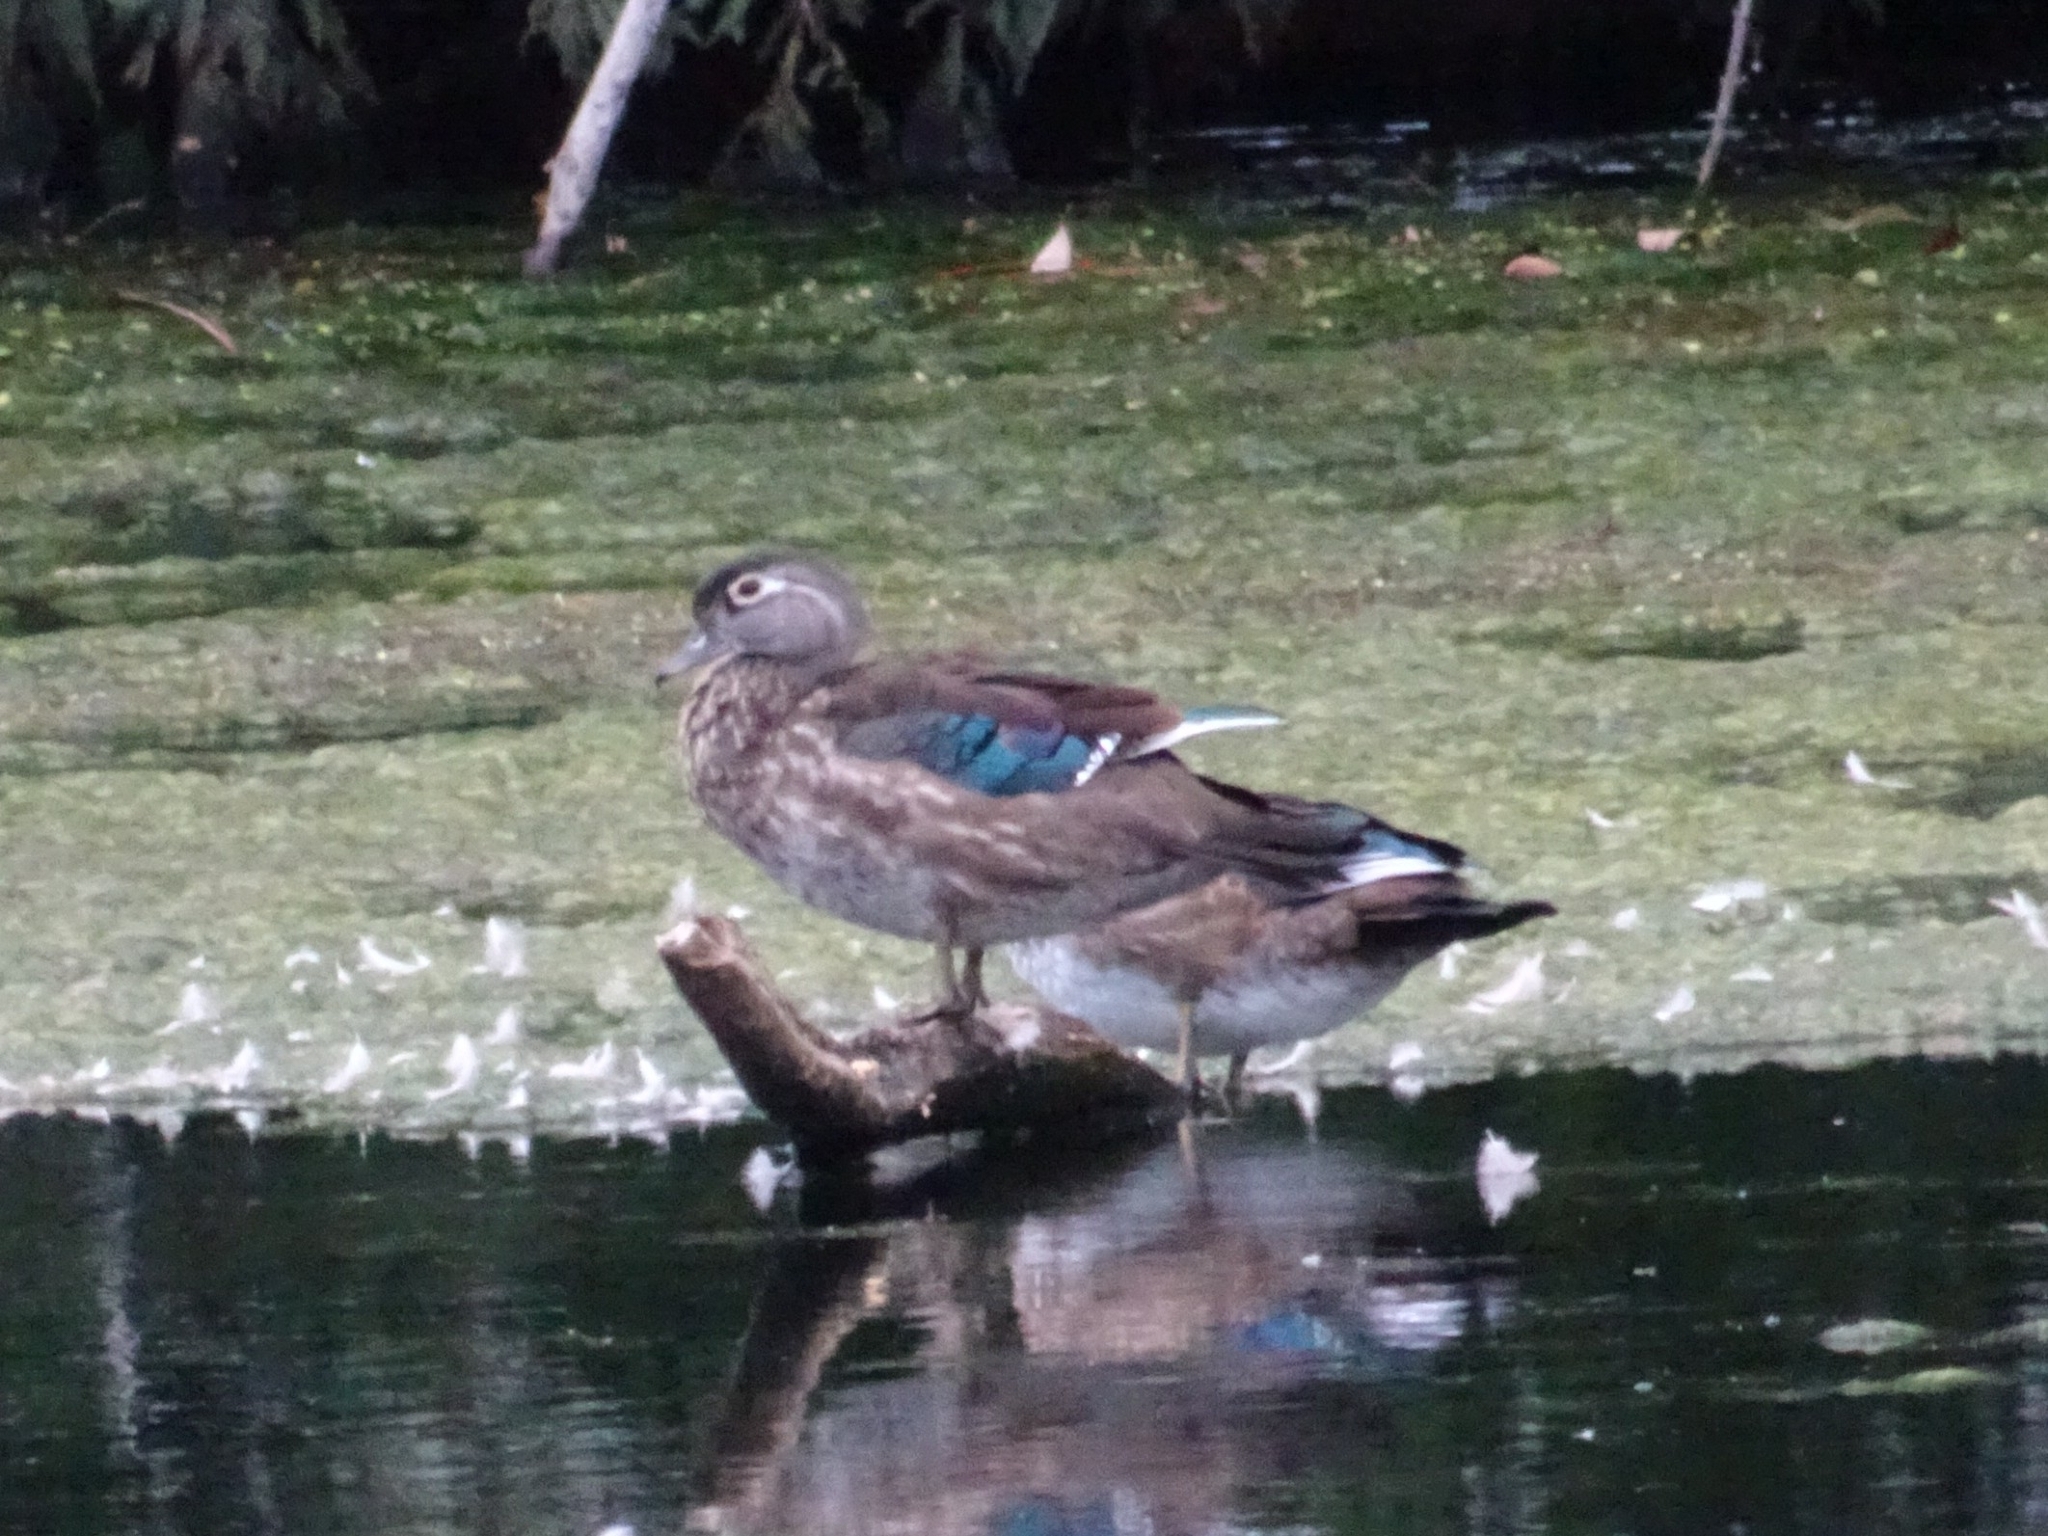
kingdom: Animalia
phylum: Chordata
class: Aves
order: Anseriformes
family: Anatidae
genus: Aix
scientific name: Aix sponsa
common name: Wood duck
